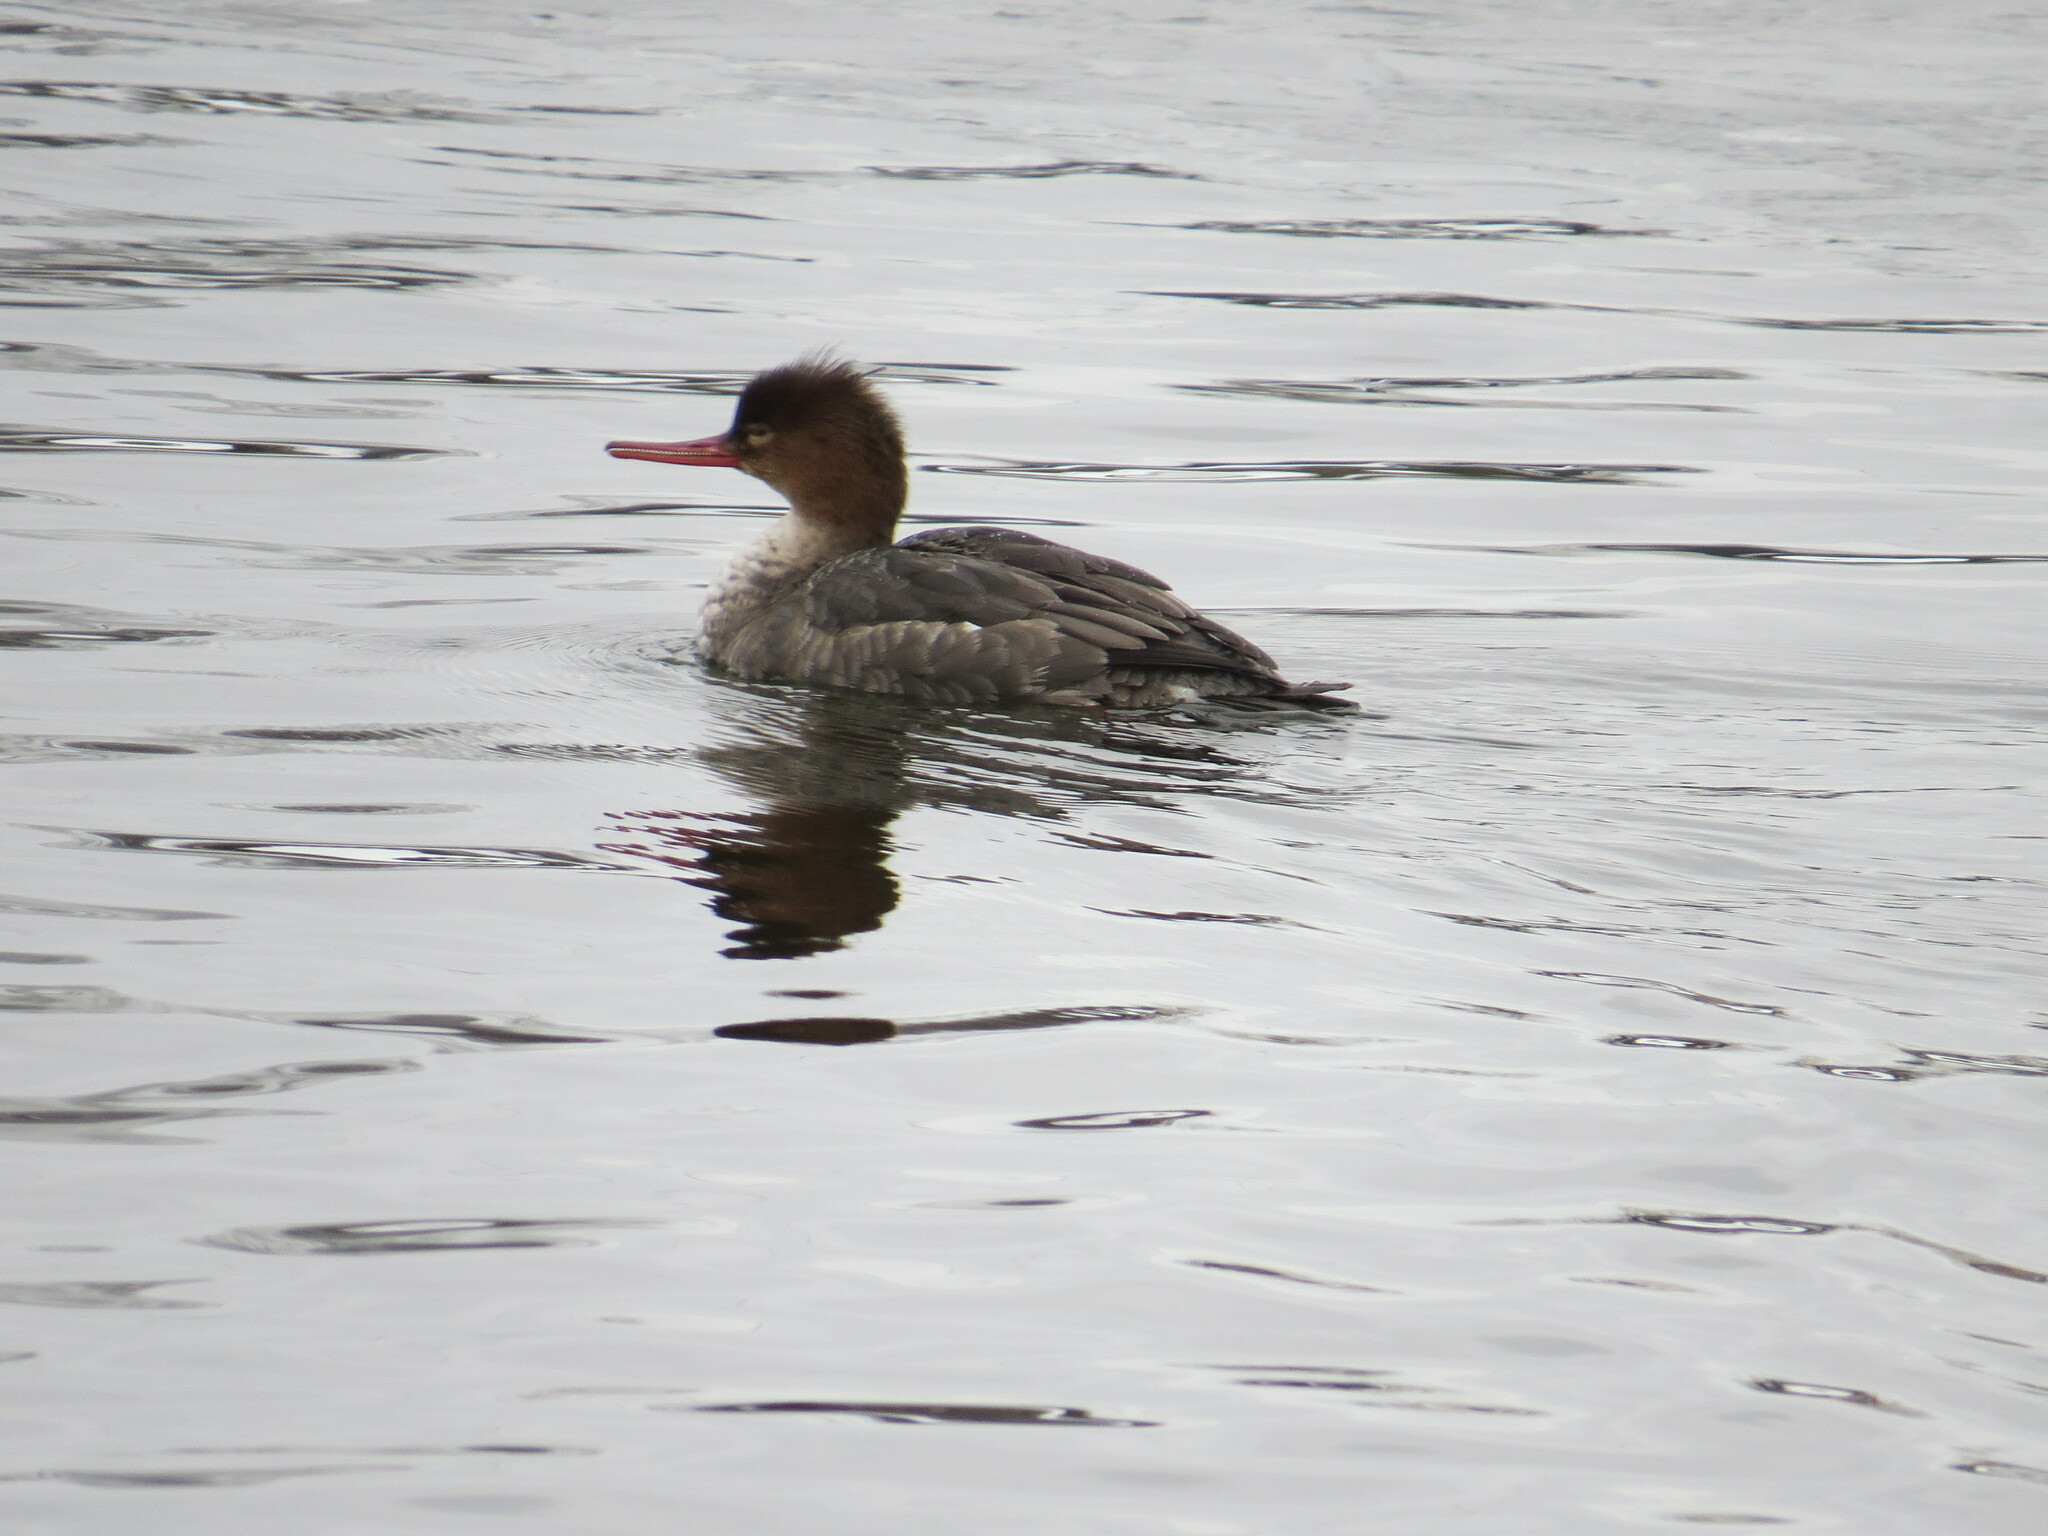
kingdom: Animalia
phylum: Chordata
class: Aves
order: Anseriformes
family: Anatidae
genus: Mergus
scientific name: Mergus serrator
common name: Red-breasted merganser
